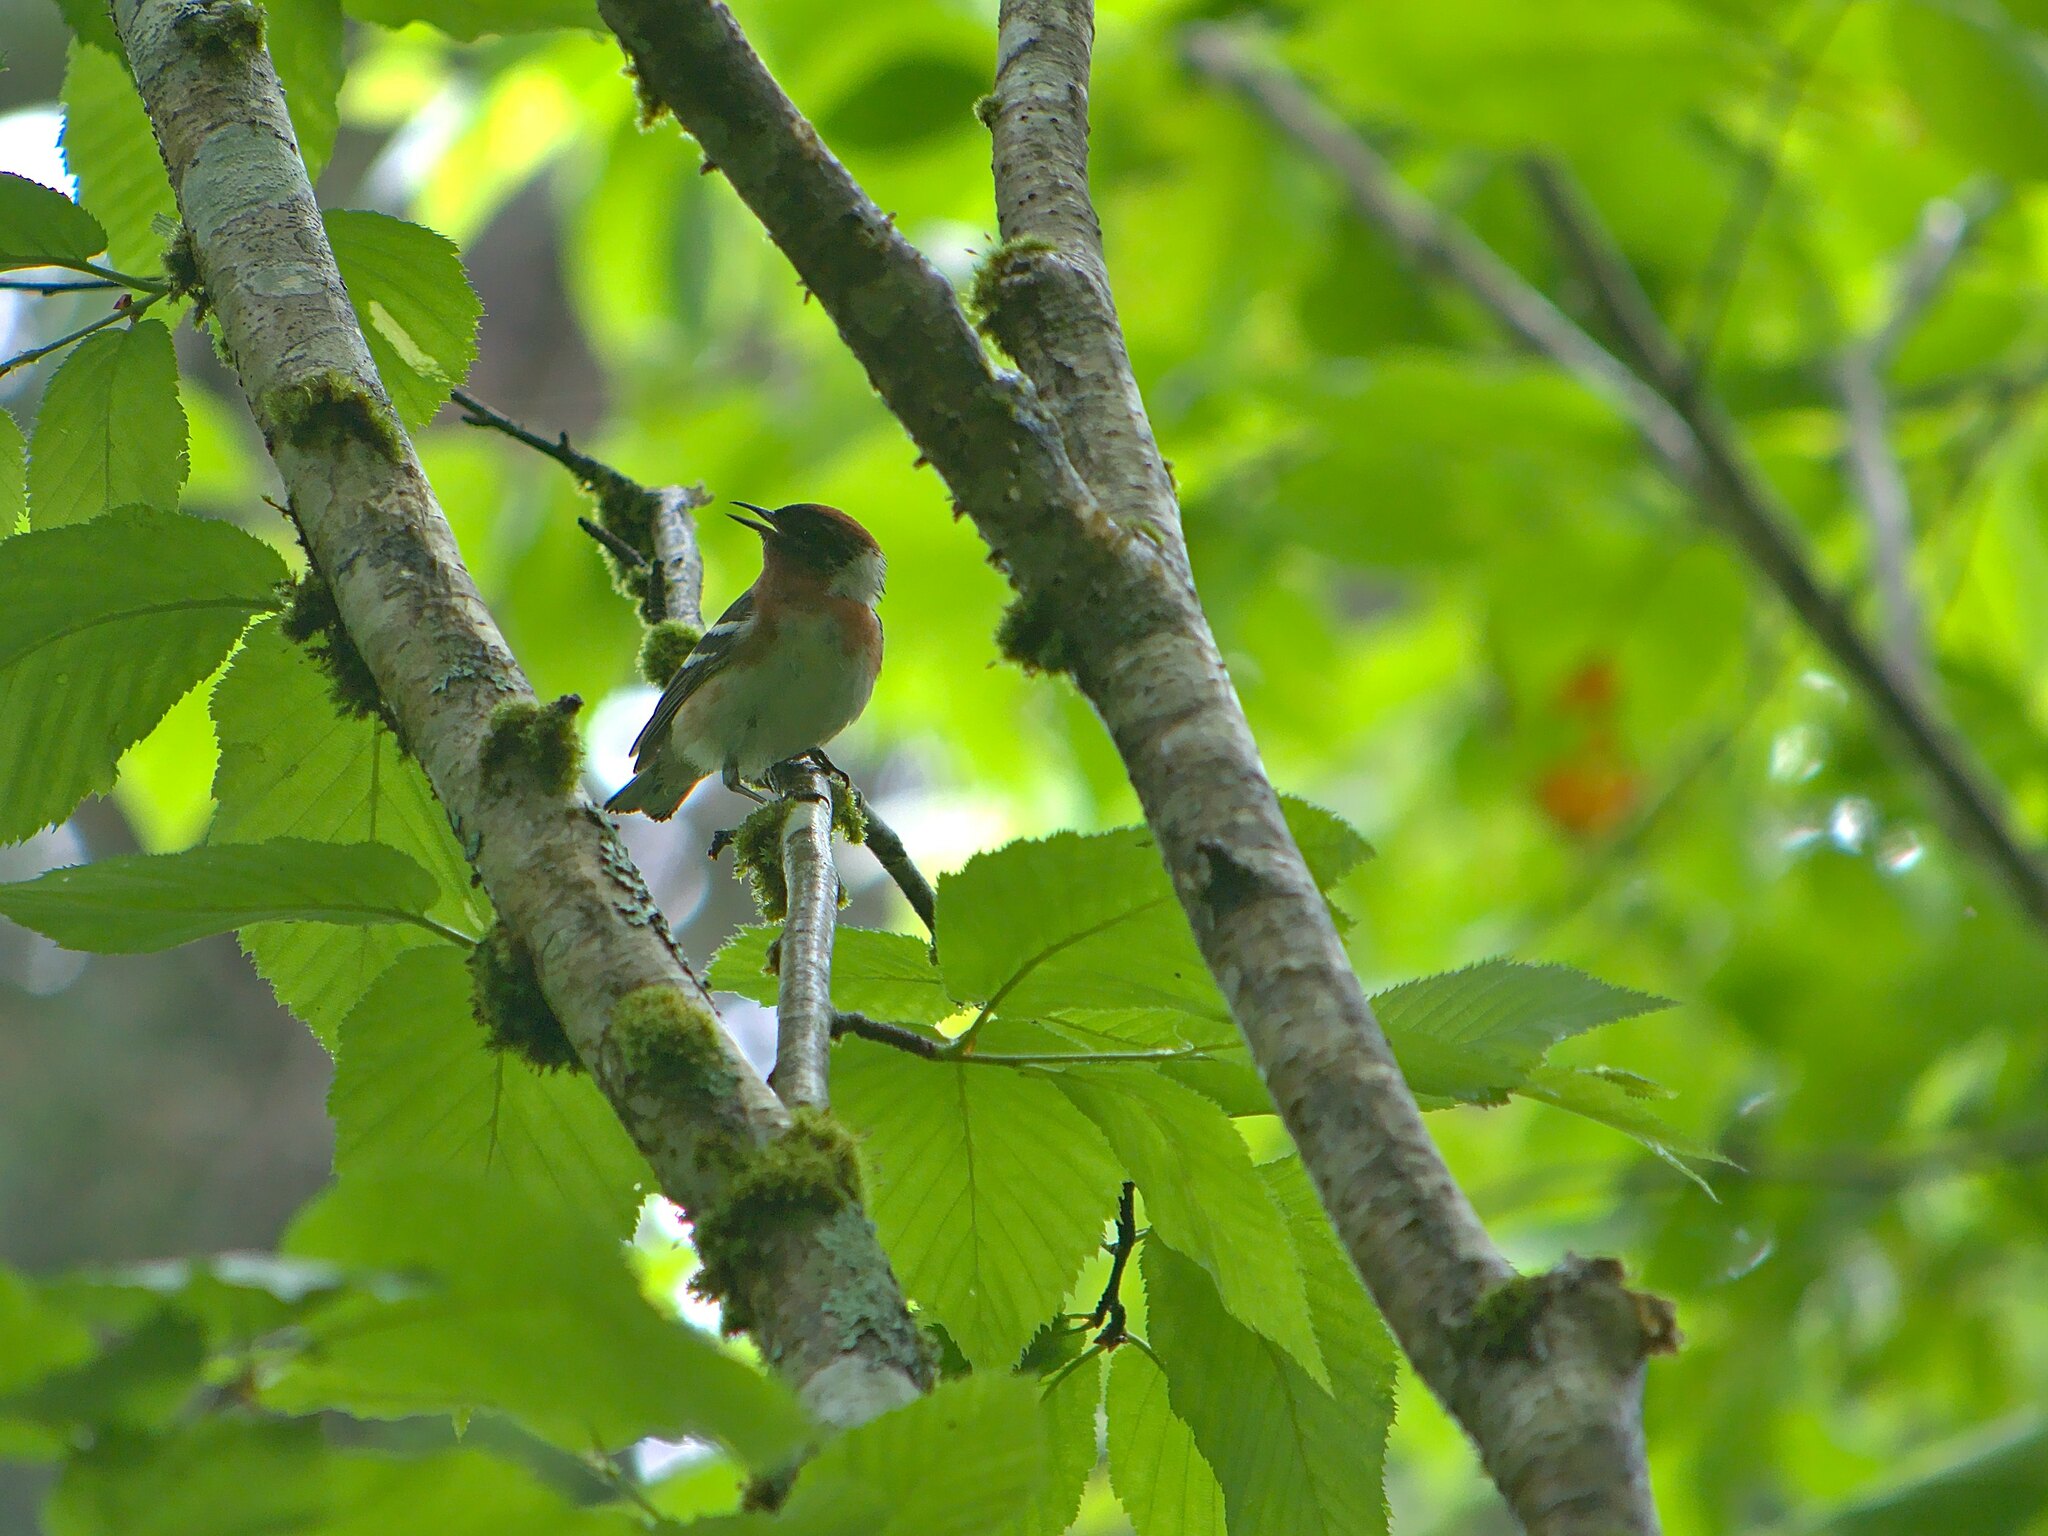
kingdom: Animalia
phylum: Chordata
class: Aves
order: Passeriformes
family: Parulidae
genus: Setophaga
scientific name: Setophaga castanea
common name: Bay-breasted warbler
